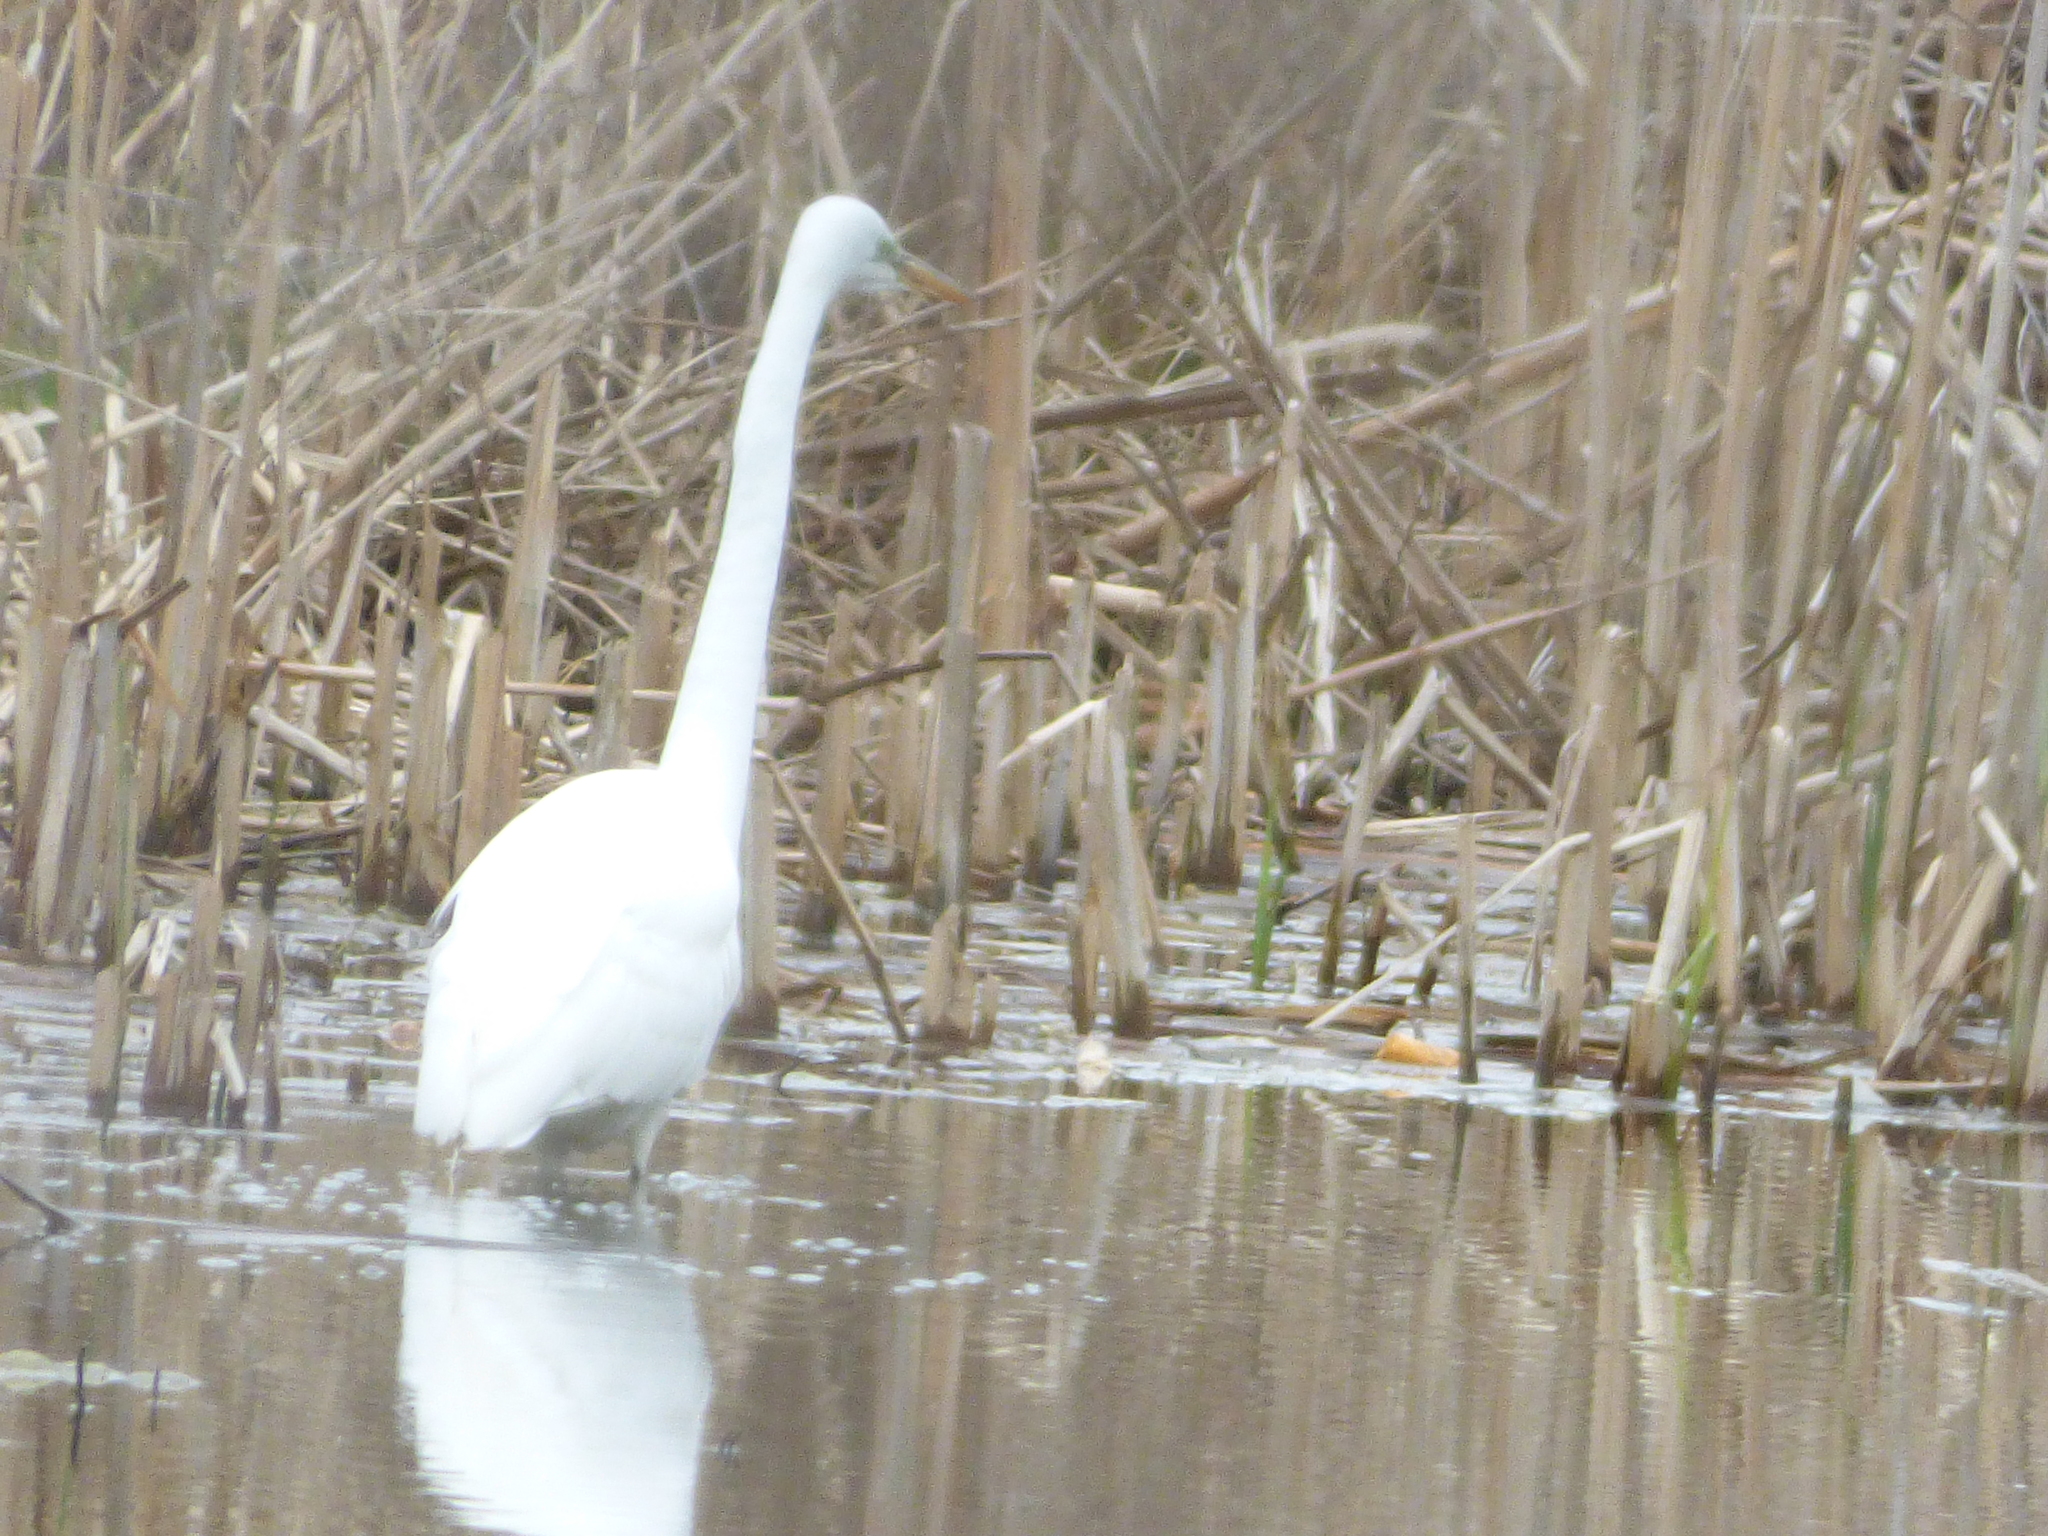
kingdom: Animalia
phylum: Chordata
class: Aves
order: Pelecaniformes
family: Ardeidae
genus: Ardea
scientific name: Ardea alba
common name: Great egret
